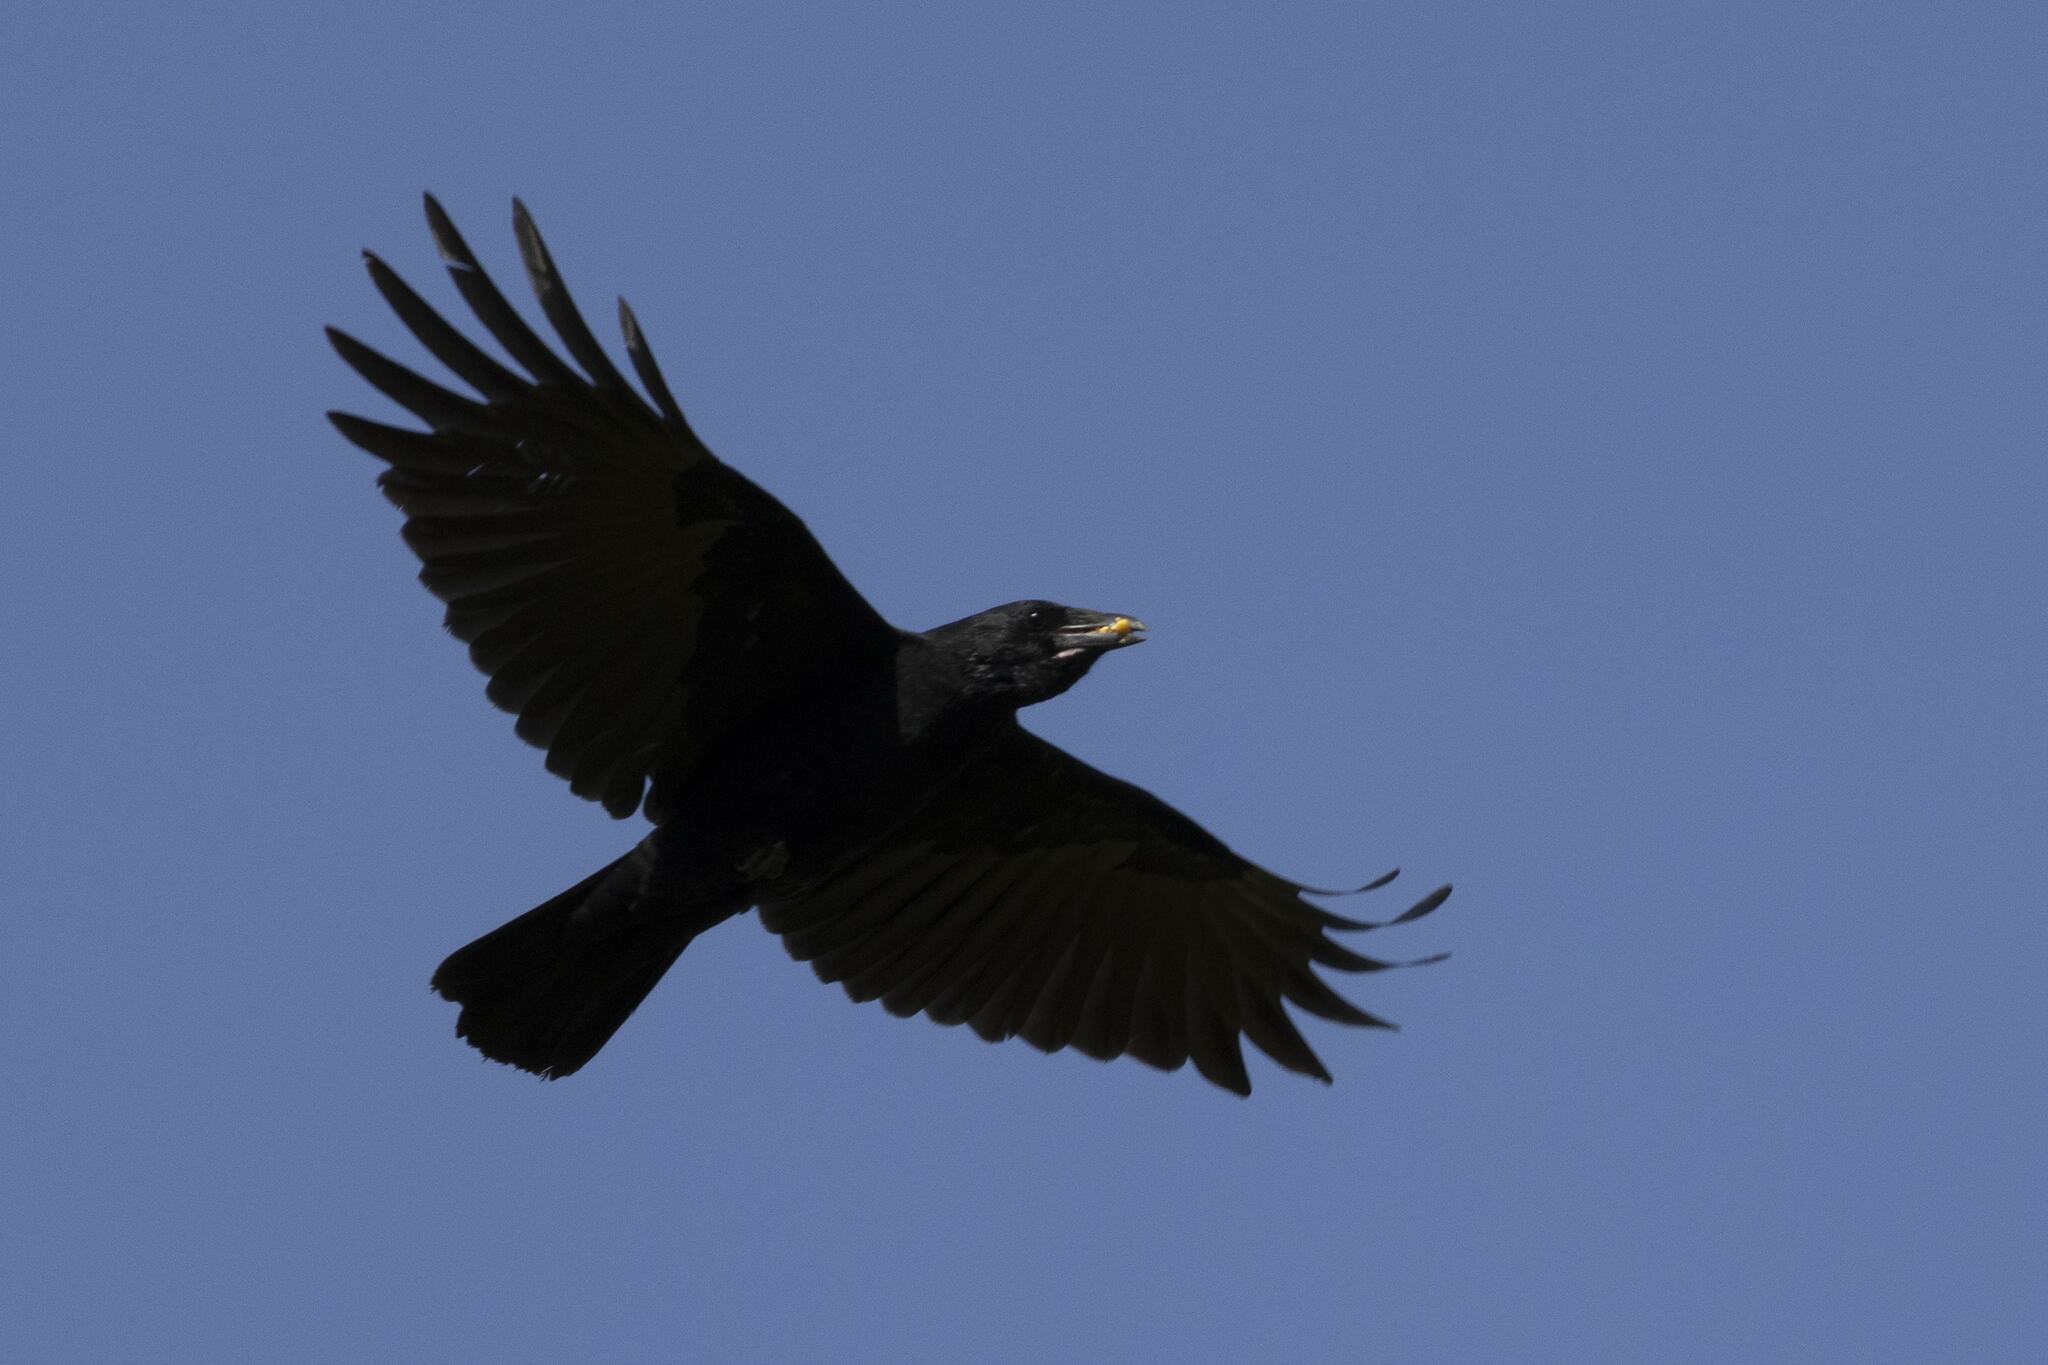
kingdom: Animalia
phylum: Chordata
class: Aves
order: Passeriformes
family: Corvidae
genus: Corvus
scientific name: Corvus corone
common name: Carrion crow
